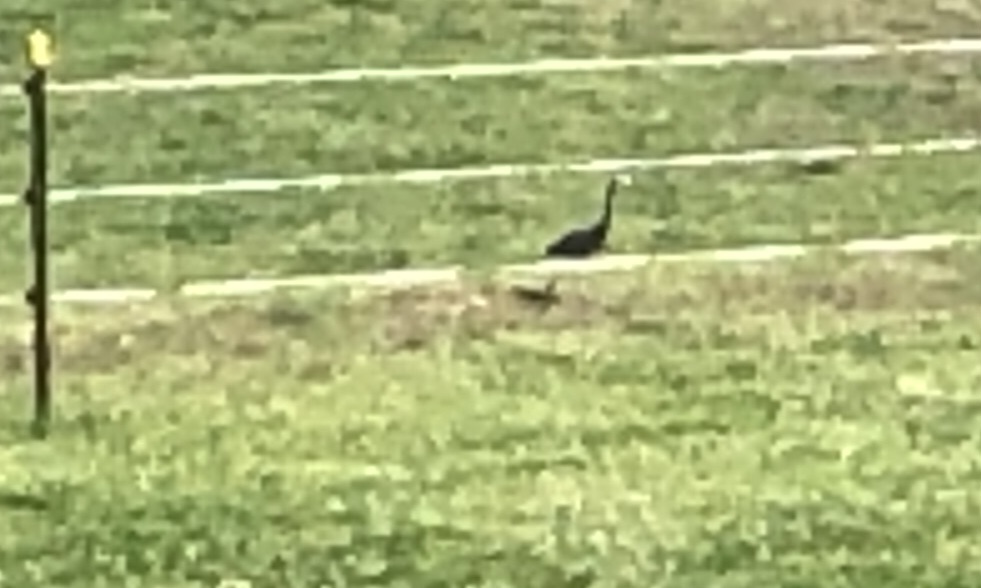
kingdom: Animalia
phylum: Chordata
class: Aves
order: Pelecaniformes
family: Ardeidae
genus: Egretta
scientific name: Egretta novaehollandiae
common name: White-faced heron
